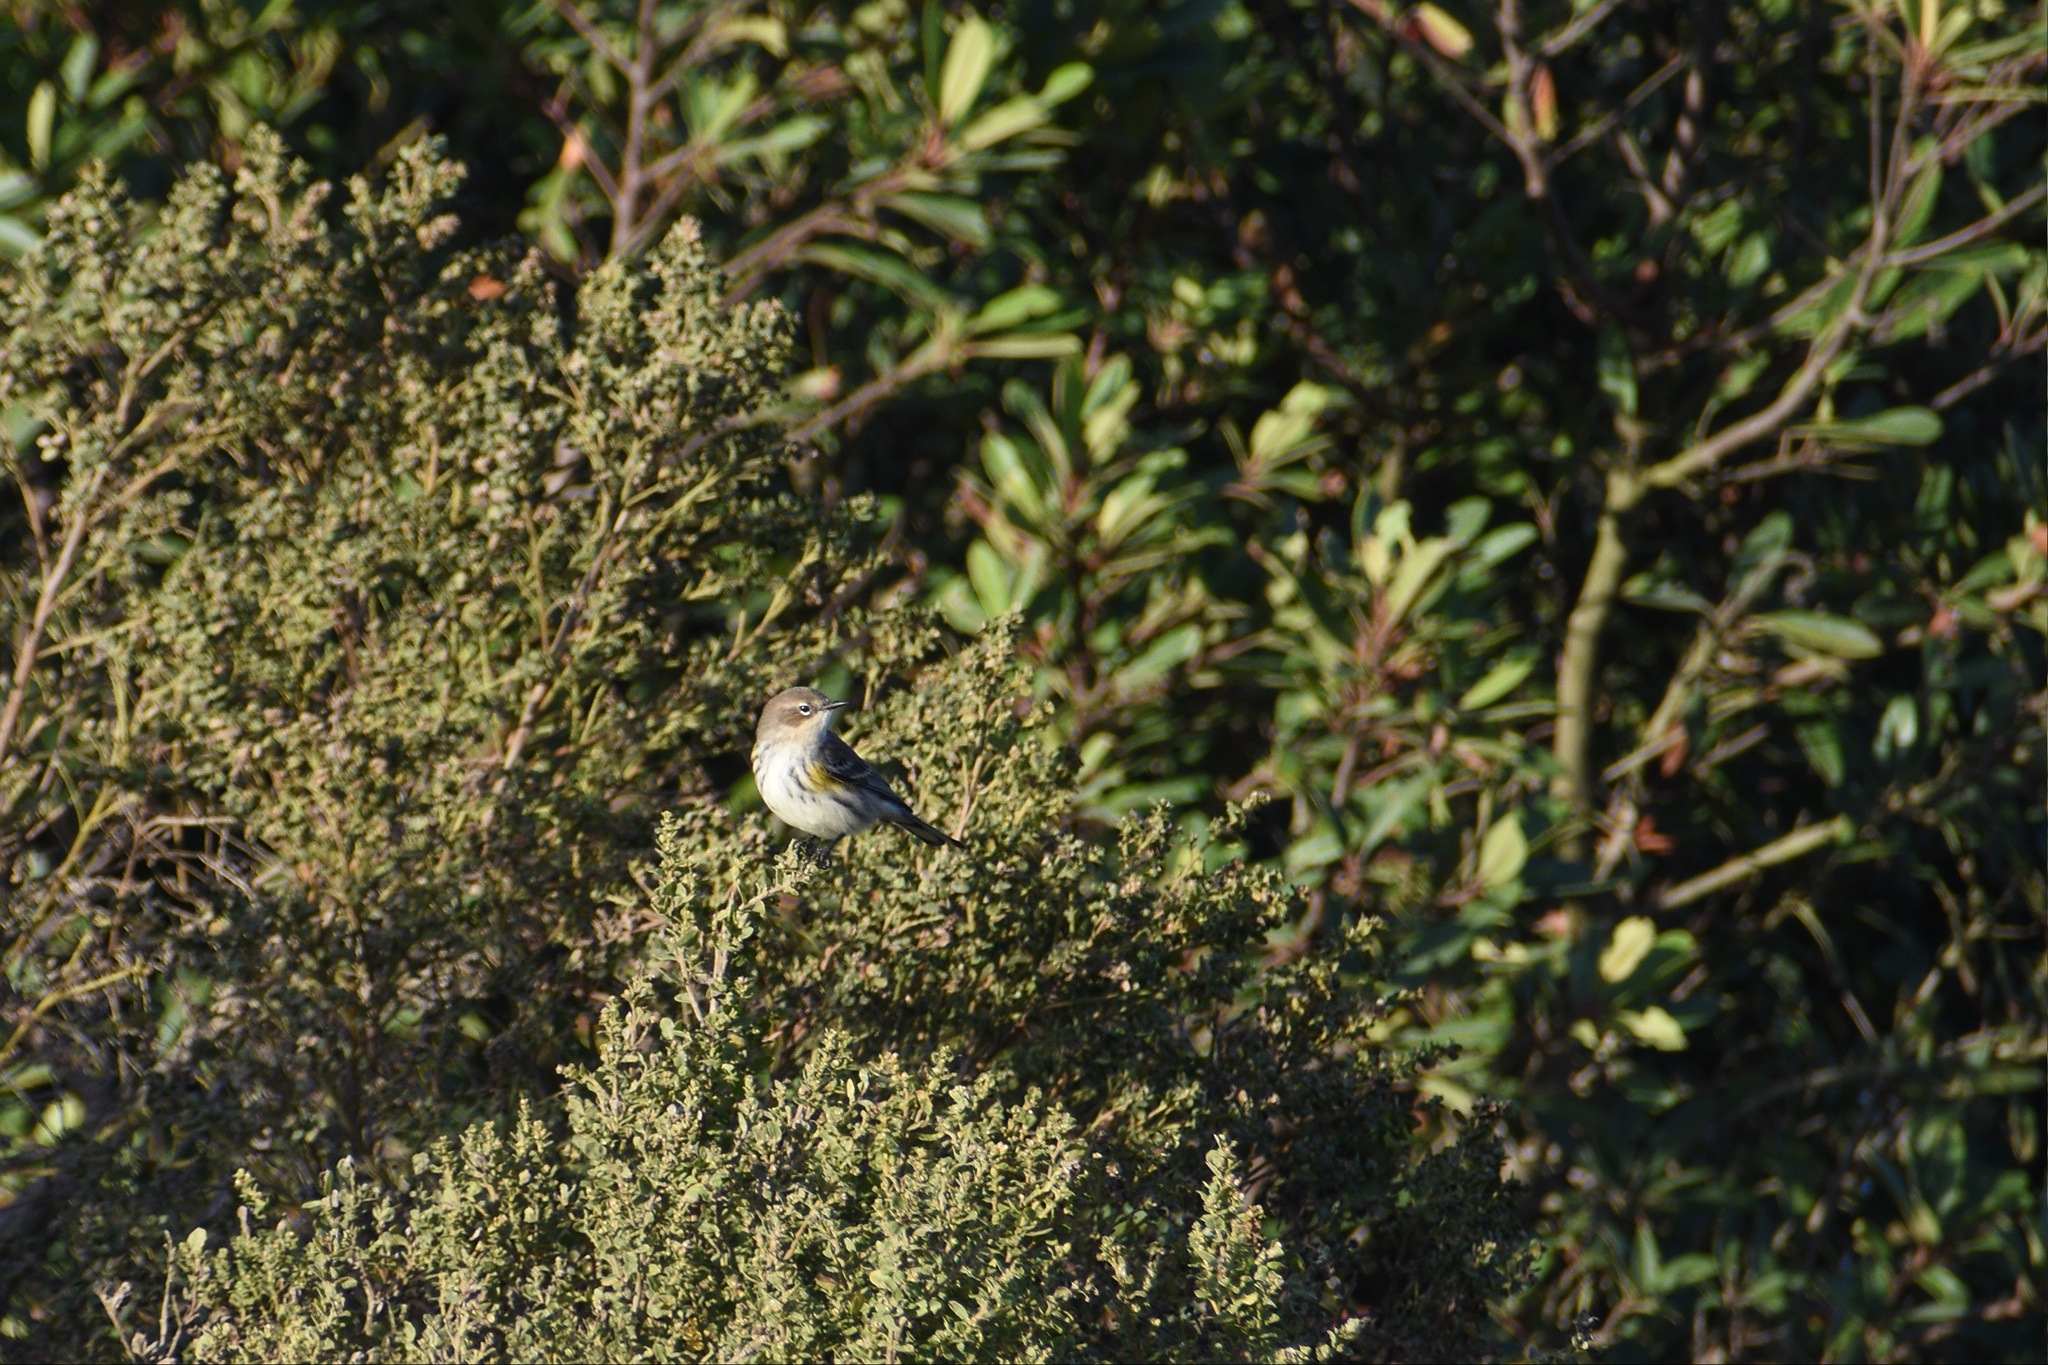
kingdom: Animalia
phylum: Chordata
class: Aves
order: Passeriformes
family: Parulidae
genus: Setophaga
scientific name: Setophaga coronata
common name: Myrtle warbler
